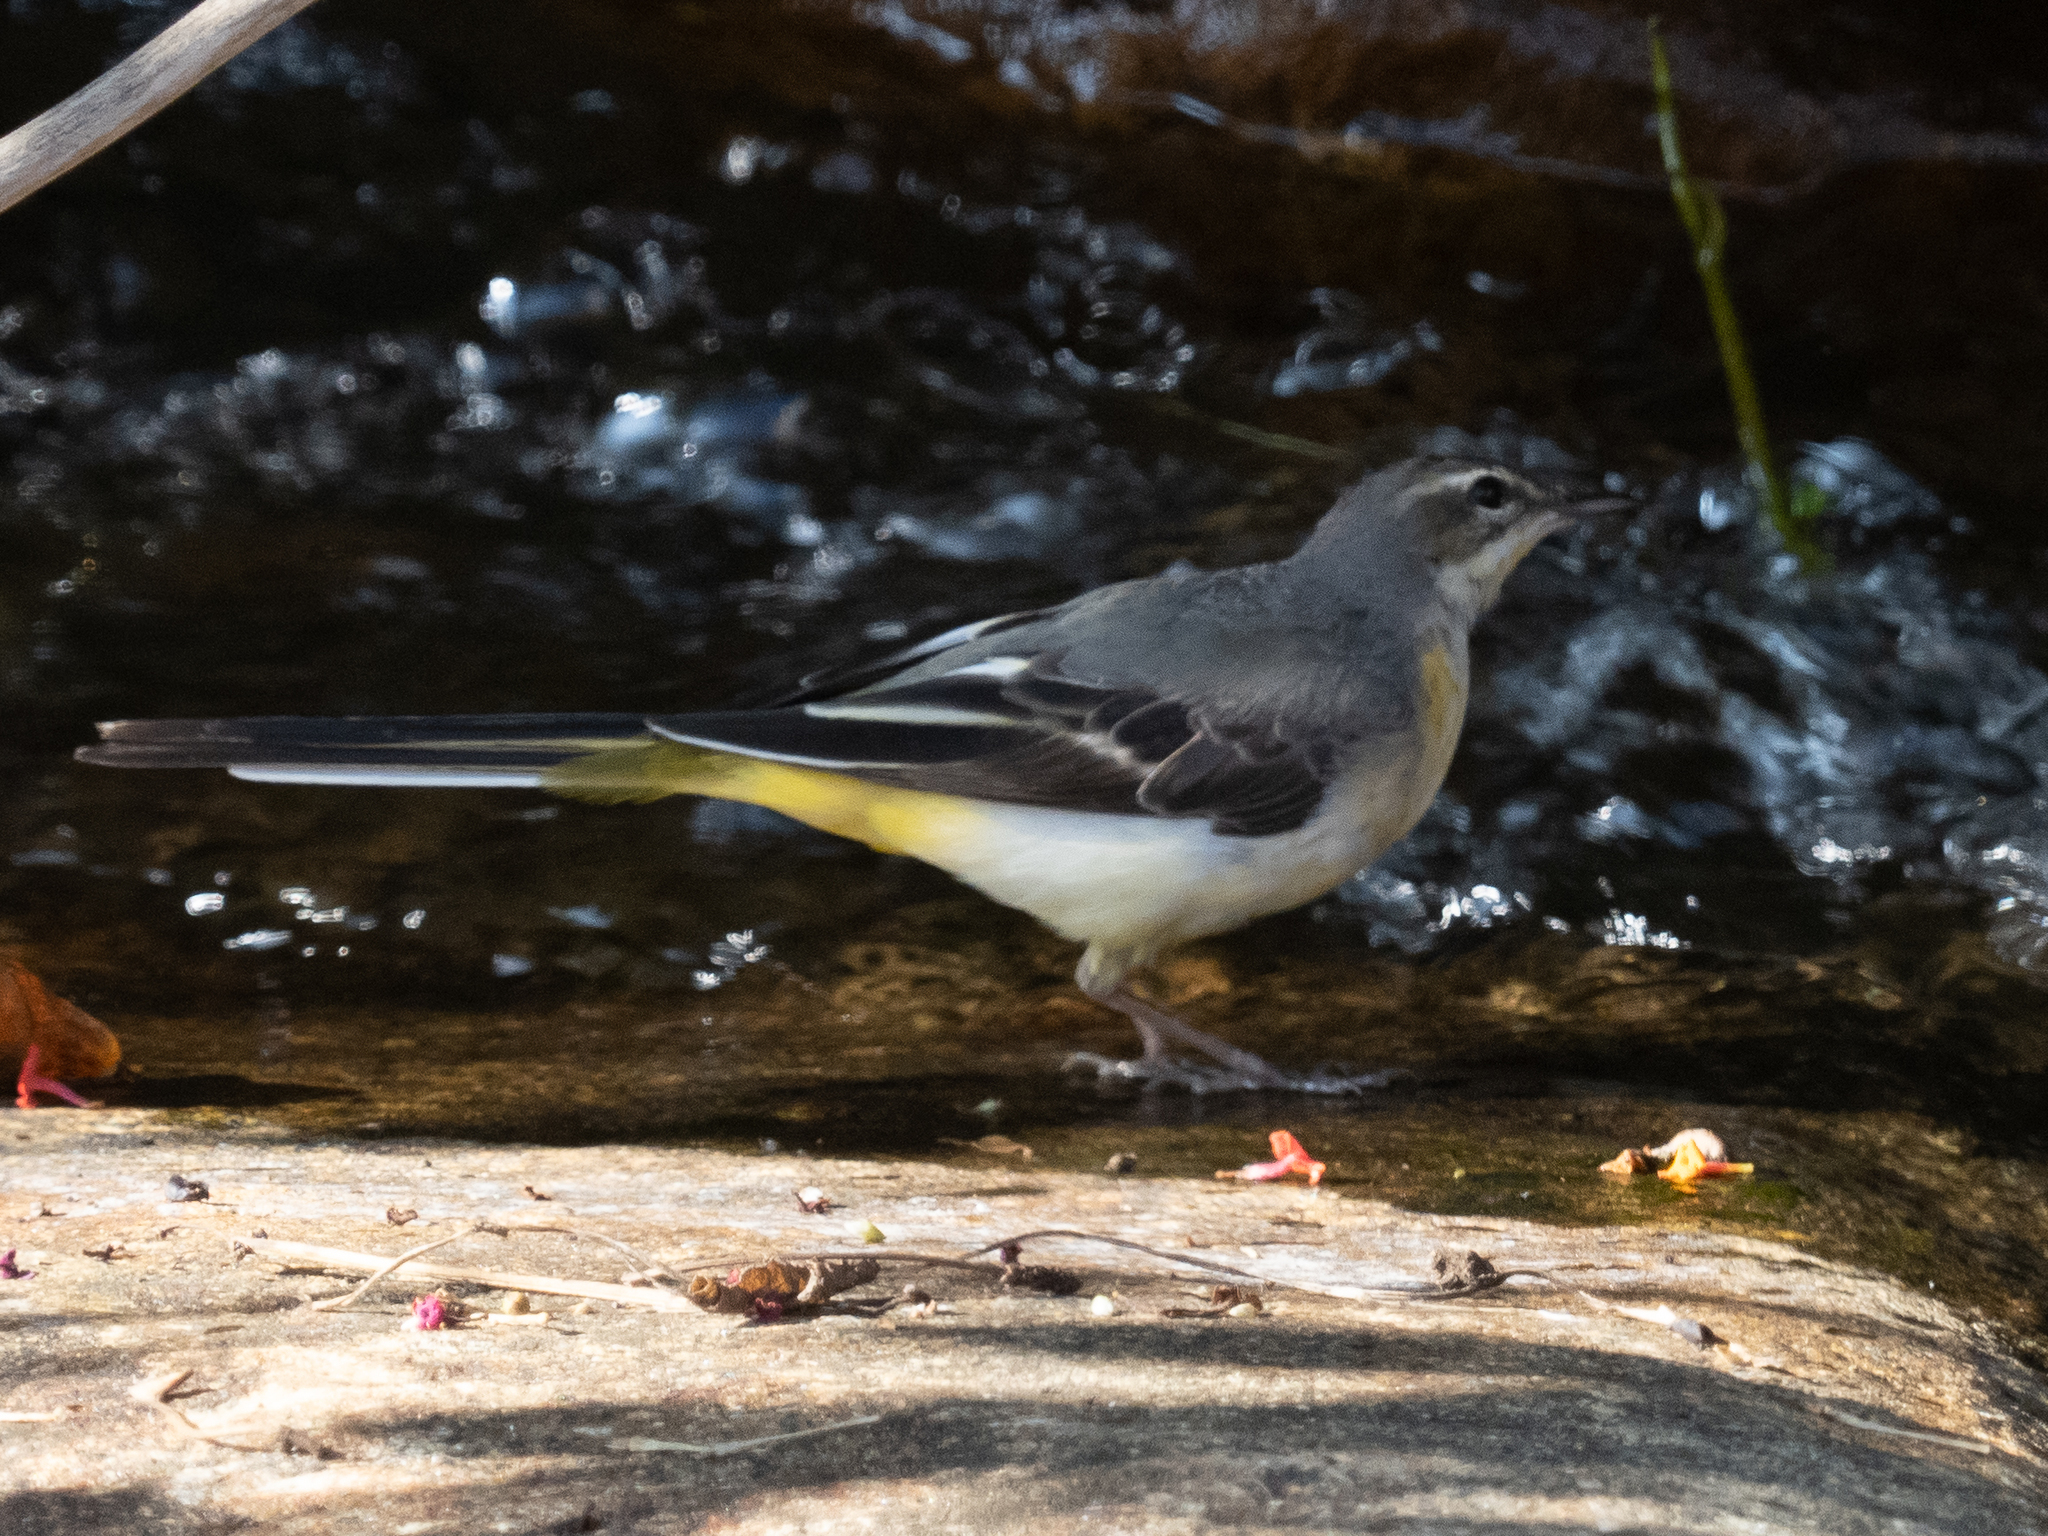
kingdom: Animalia
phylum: Chordata
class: Aves
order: Passeriformes
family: Motacillidae
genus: Motacilla
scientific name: Motacilla cinerea
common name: Grey wagtail
